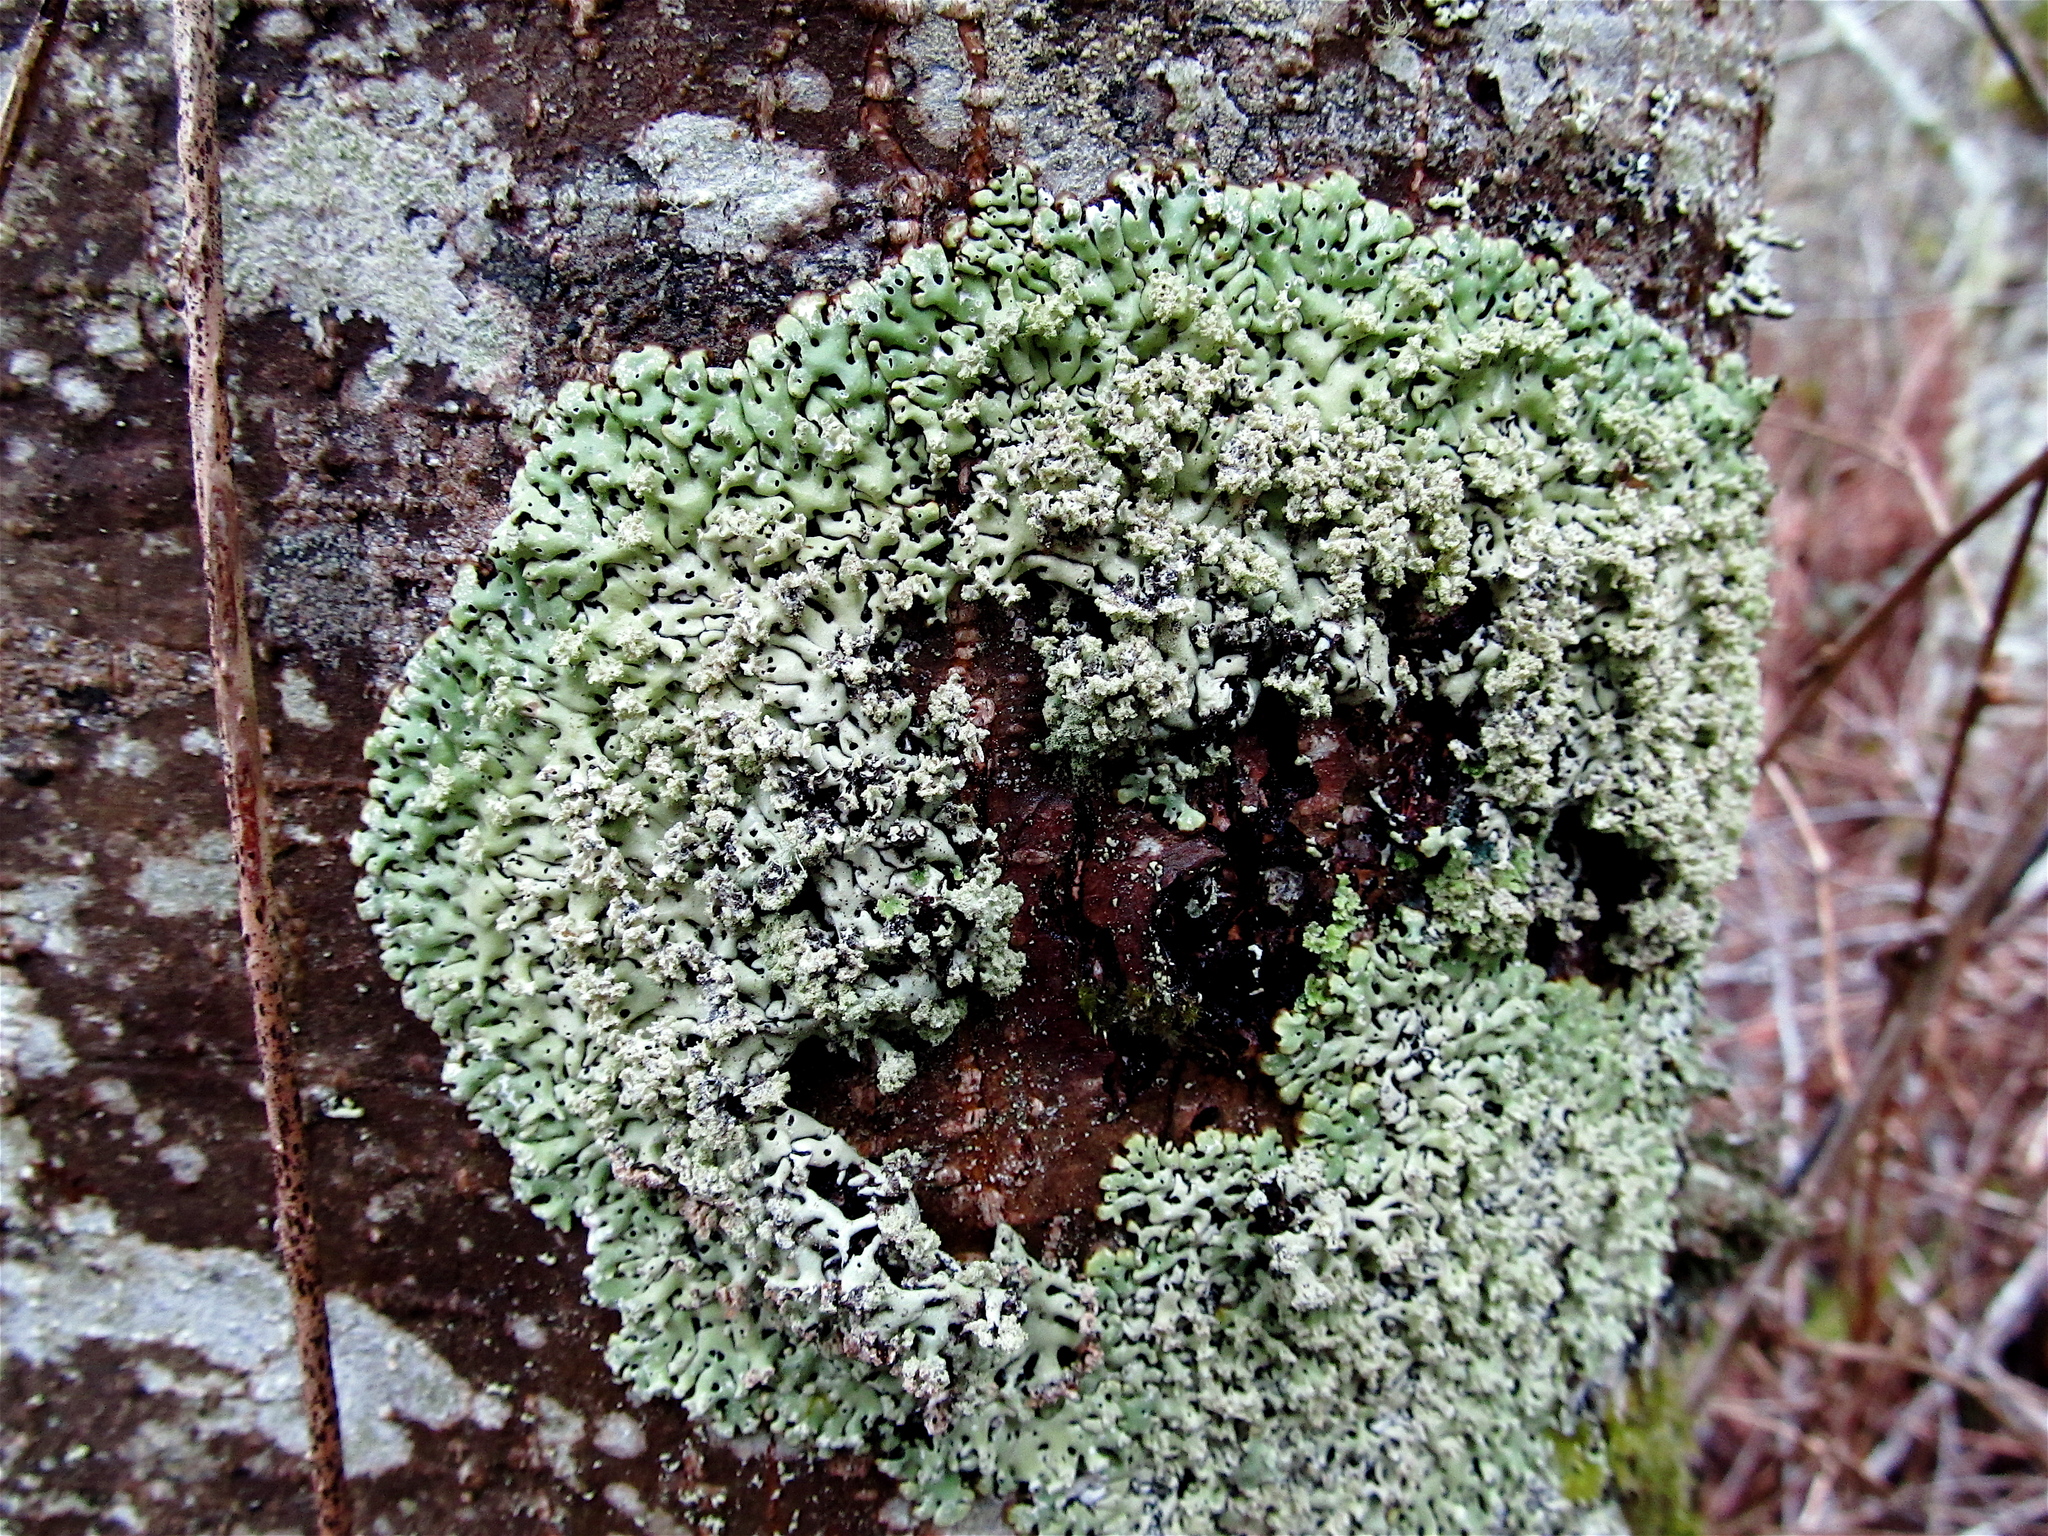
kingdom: Fungi
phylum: Ascomycota
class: Lecanoromycetes
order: Lecanorales
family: Parmeliaceae
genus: Menegazzia
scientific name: Menegazzia terebrata
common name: Magic treeflute lichen
